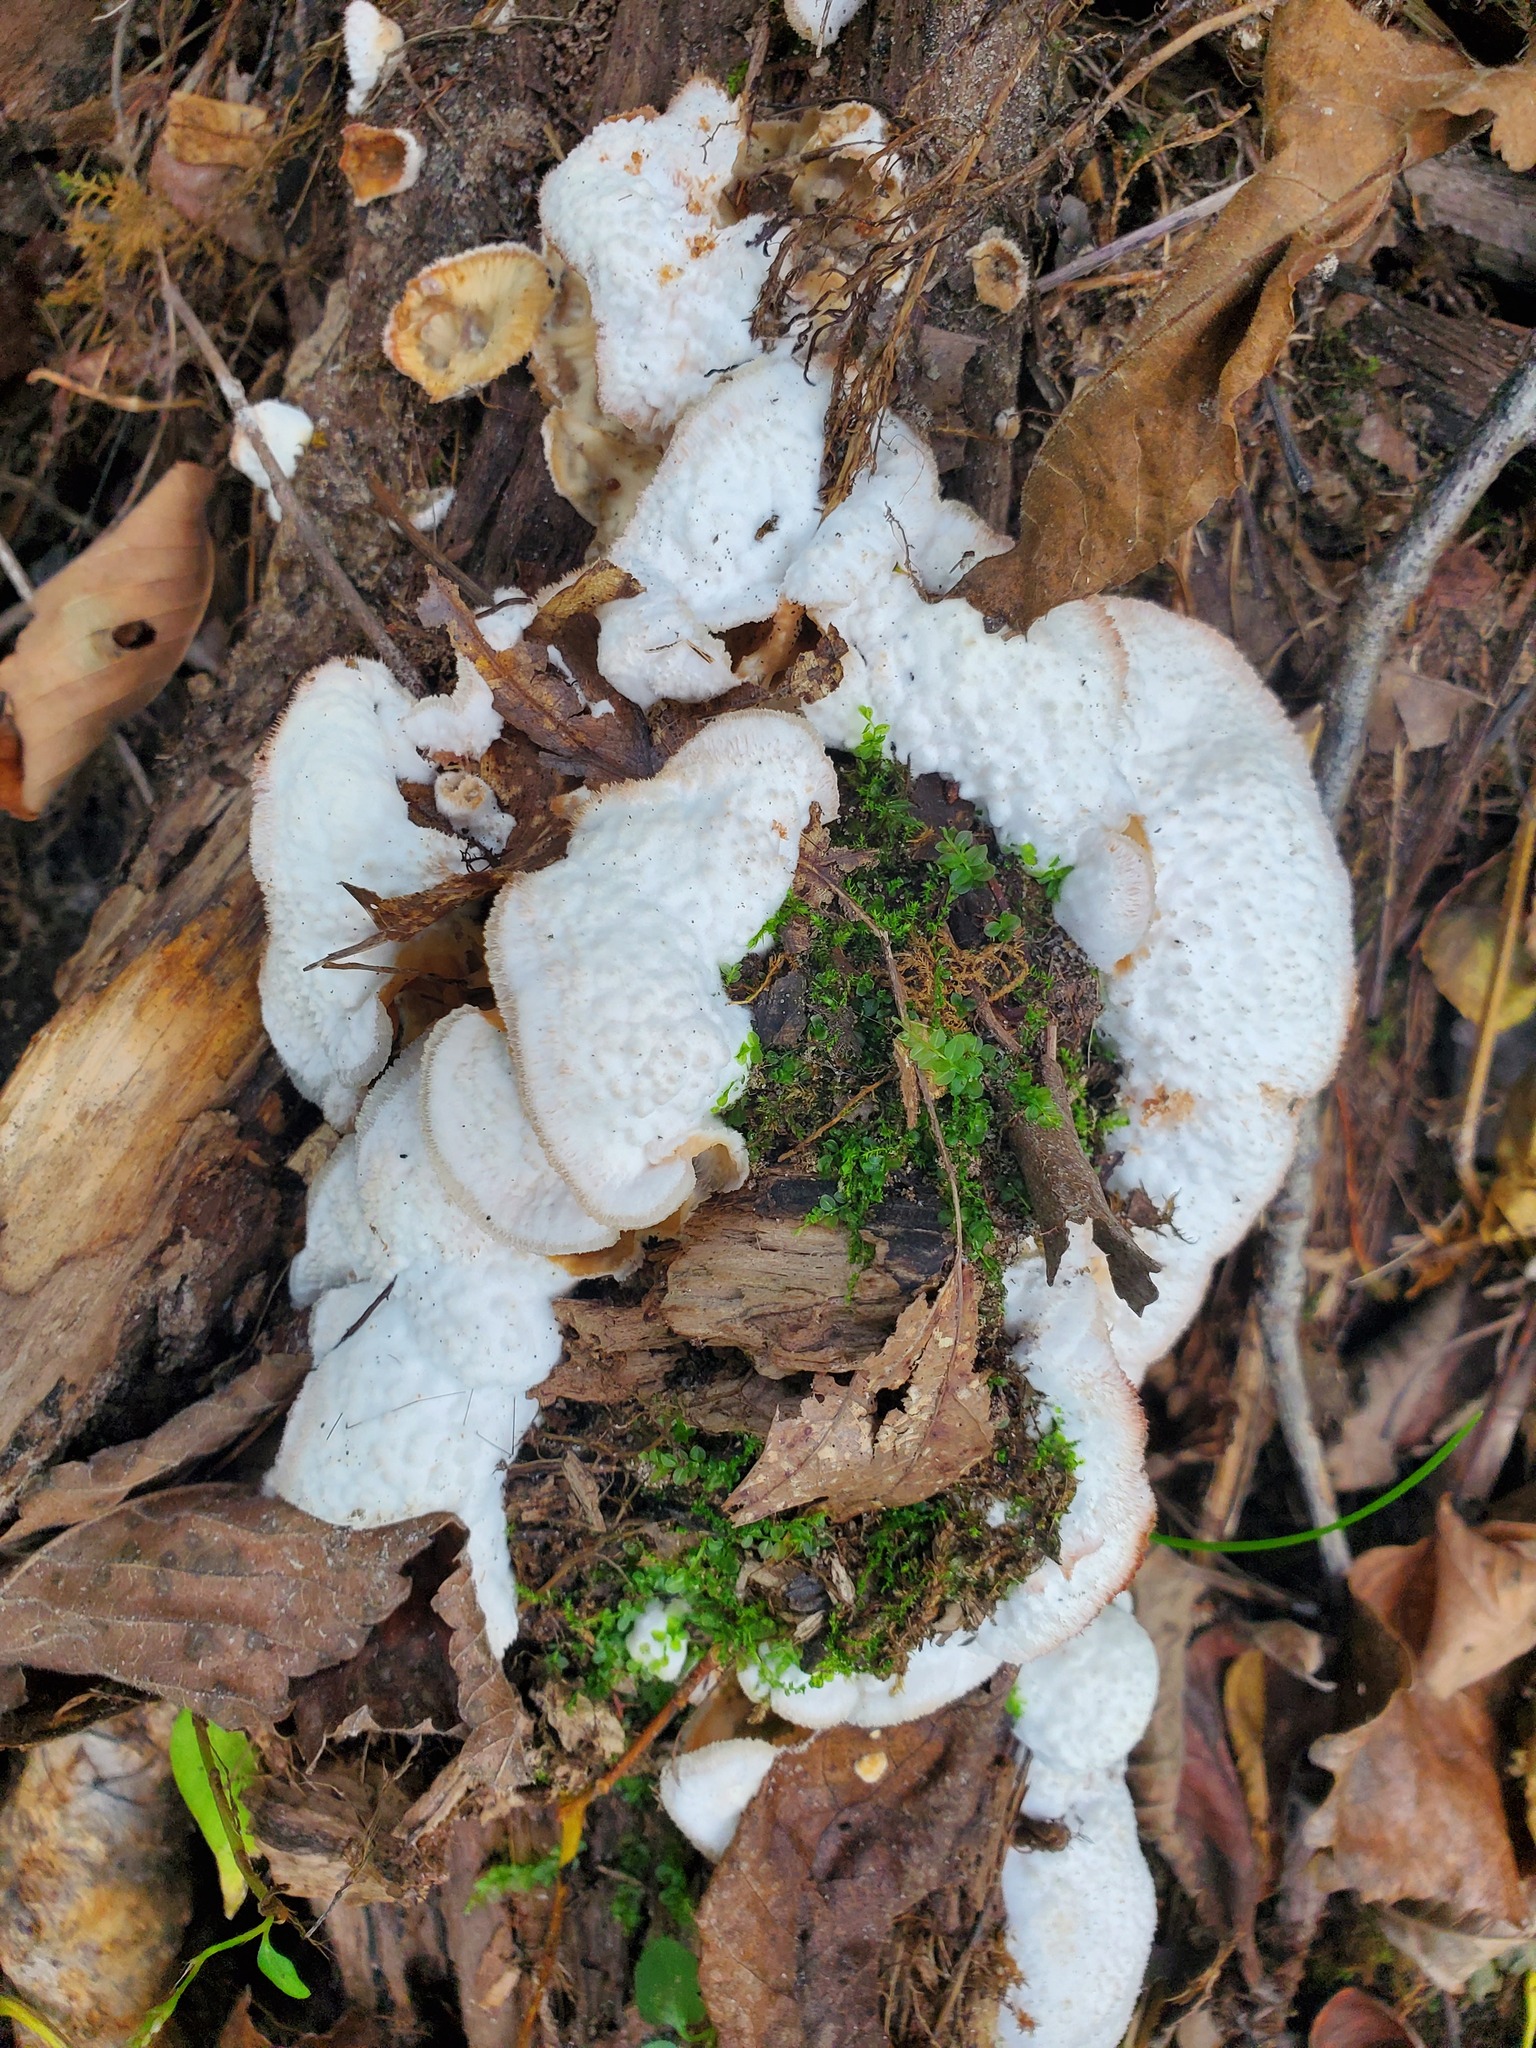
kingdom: Fungi
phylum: Basidiomycota
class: Agaricomycetes
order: Polyporales
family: Meruliaceae
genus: Phlebia
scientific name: Phlebia tremellosa
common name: Jelly rot
